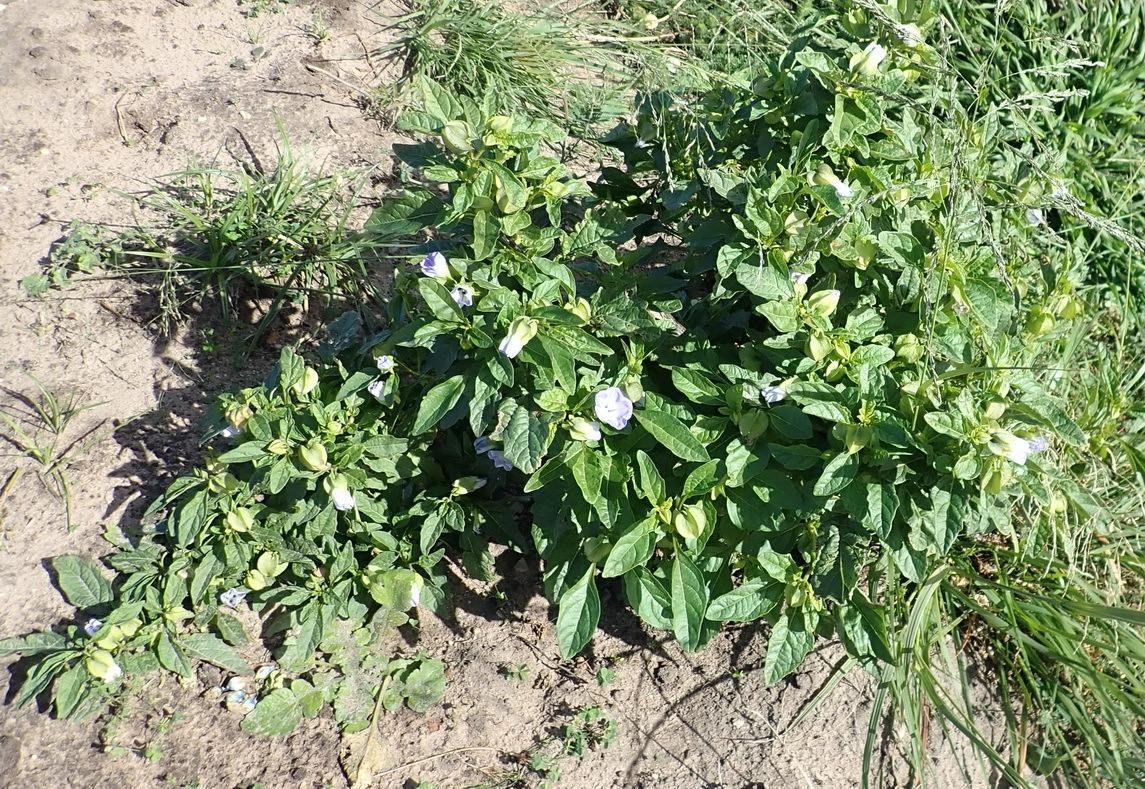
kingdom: Plantae
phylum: Tracheophyta
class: Magnoliopsida
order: Solanales
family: Solanaceae
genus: Nicandra
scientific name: Nicandra physalodes
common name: Apple-of-peru
